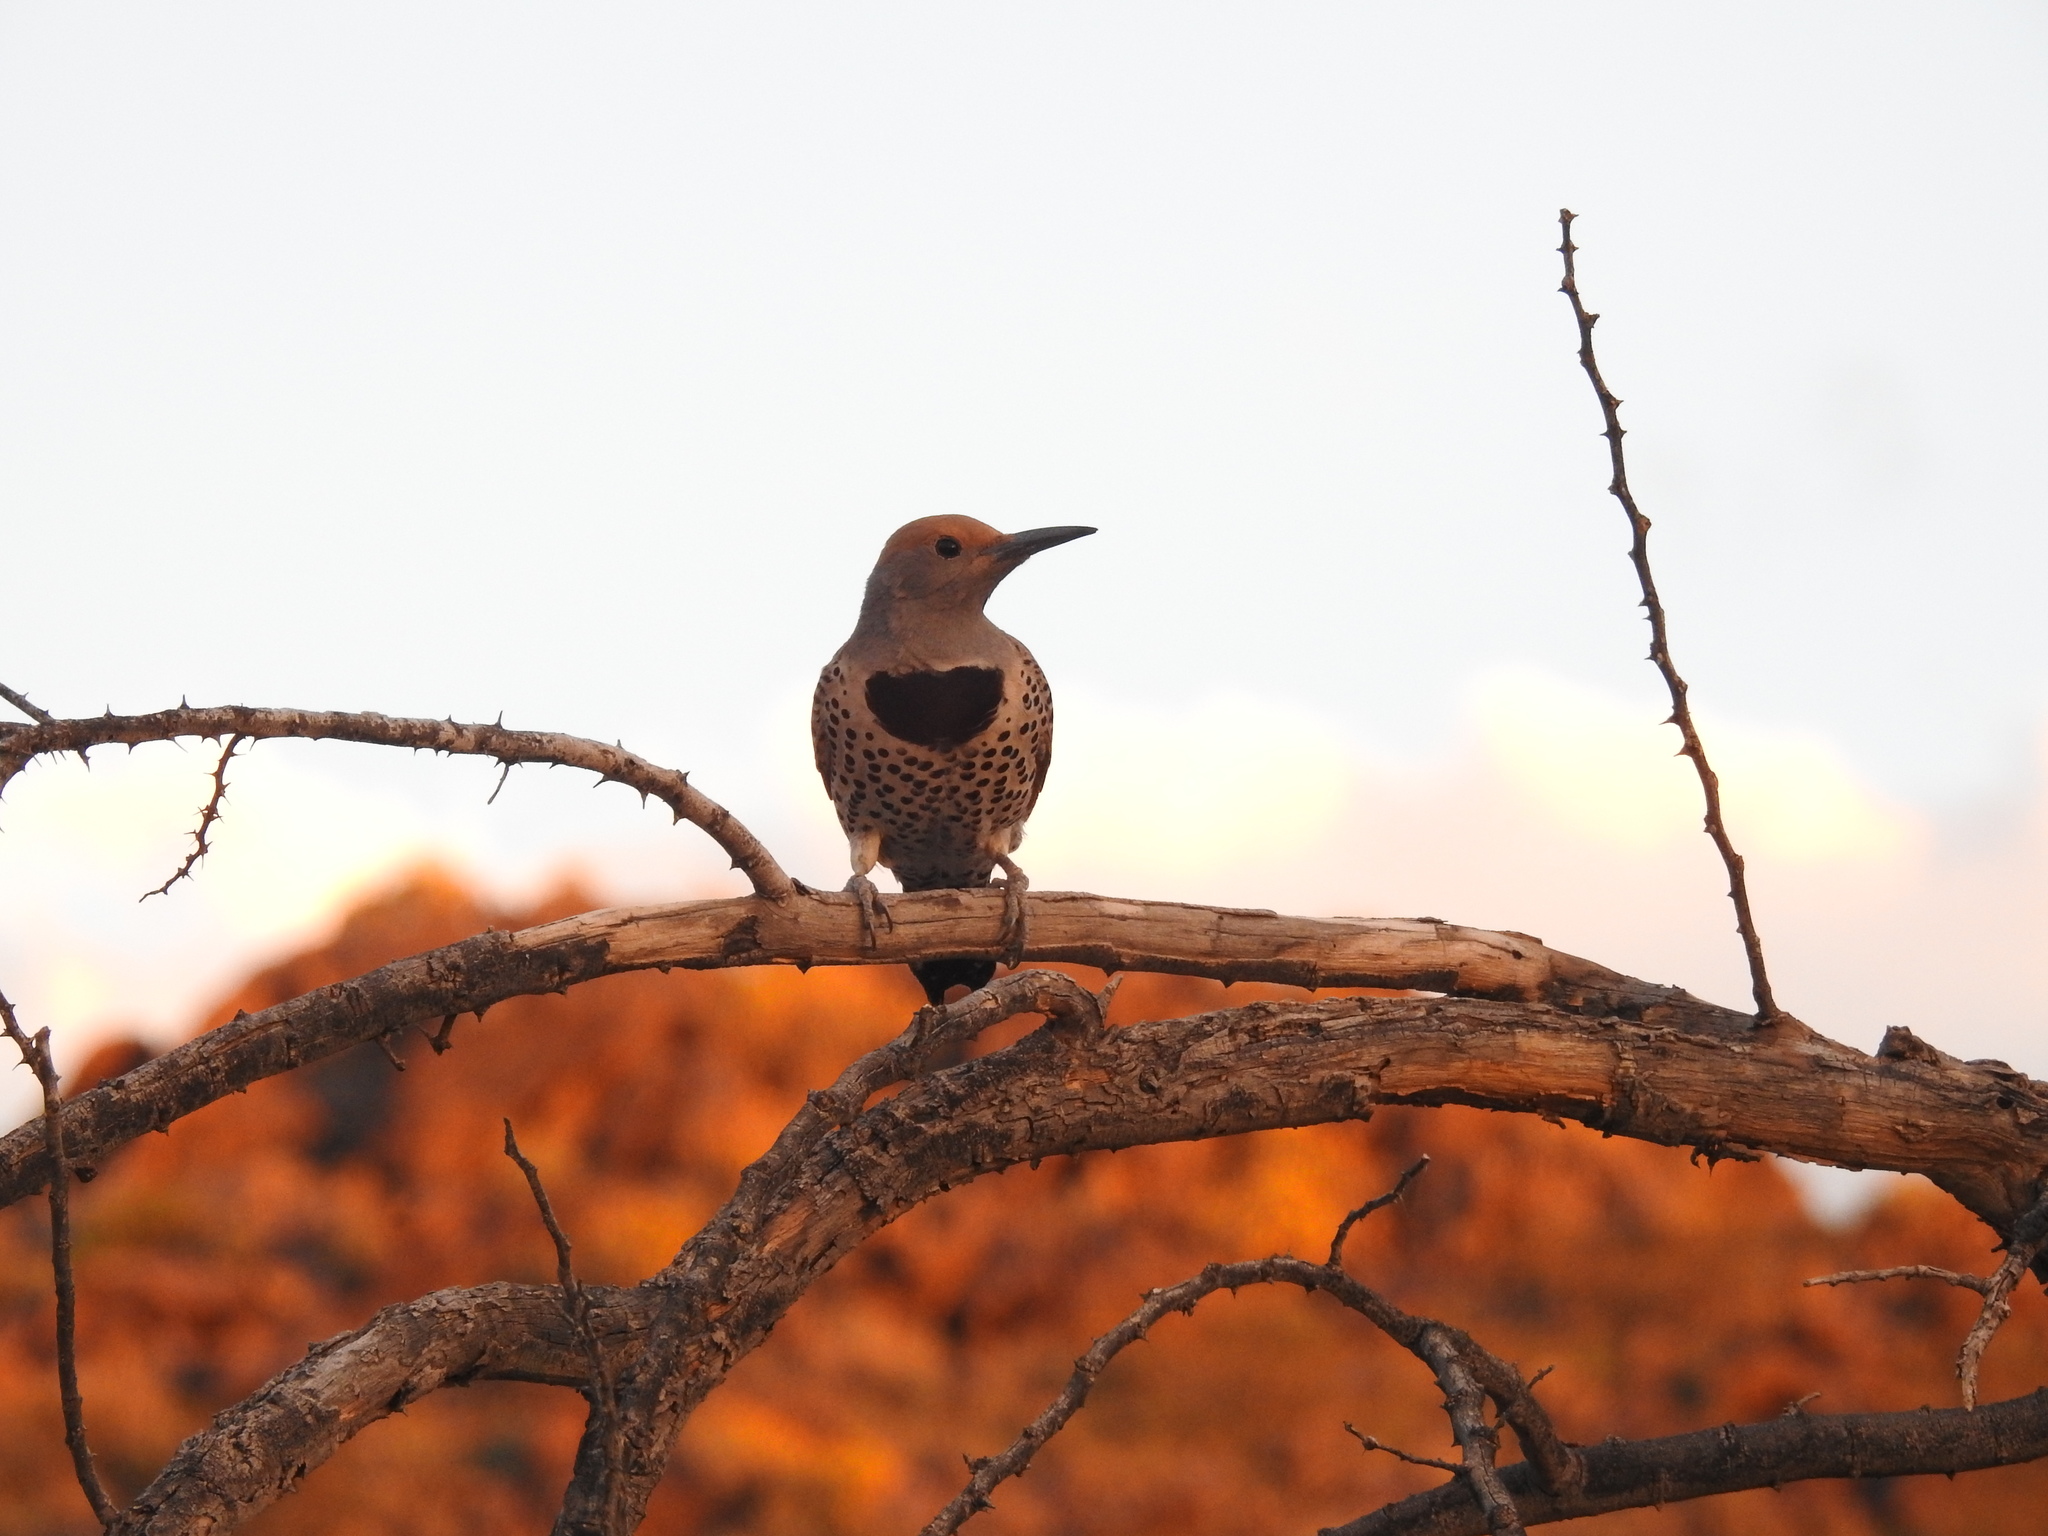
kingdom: Animalia
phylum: Chordata
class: Aves
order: Piciformes
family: Picidae
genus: Colaptes
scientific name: Colaptes chrysoides
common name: Gilded flicker
